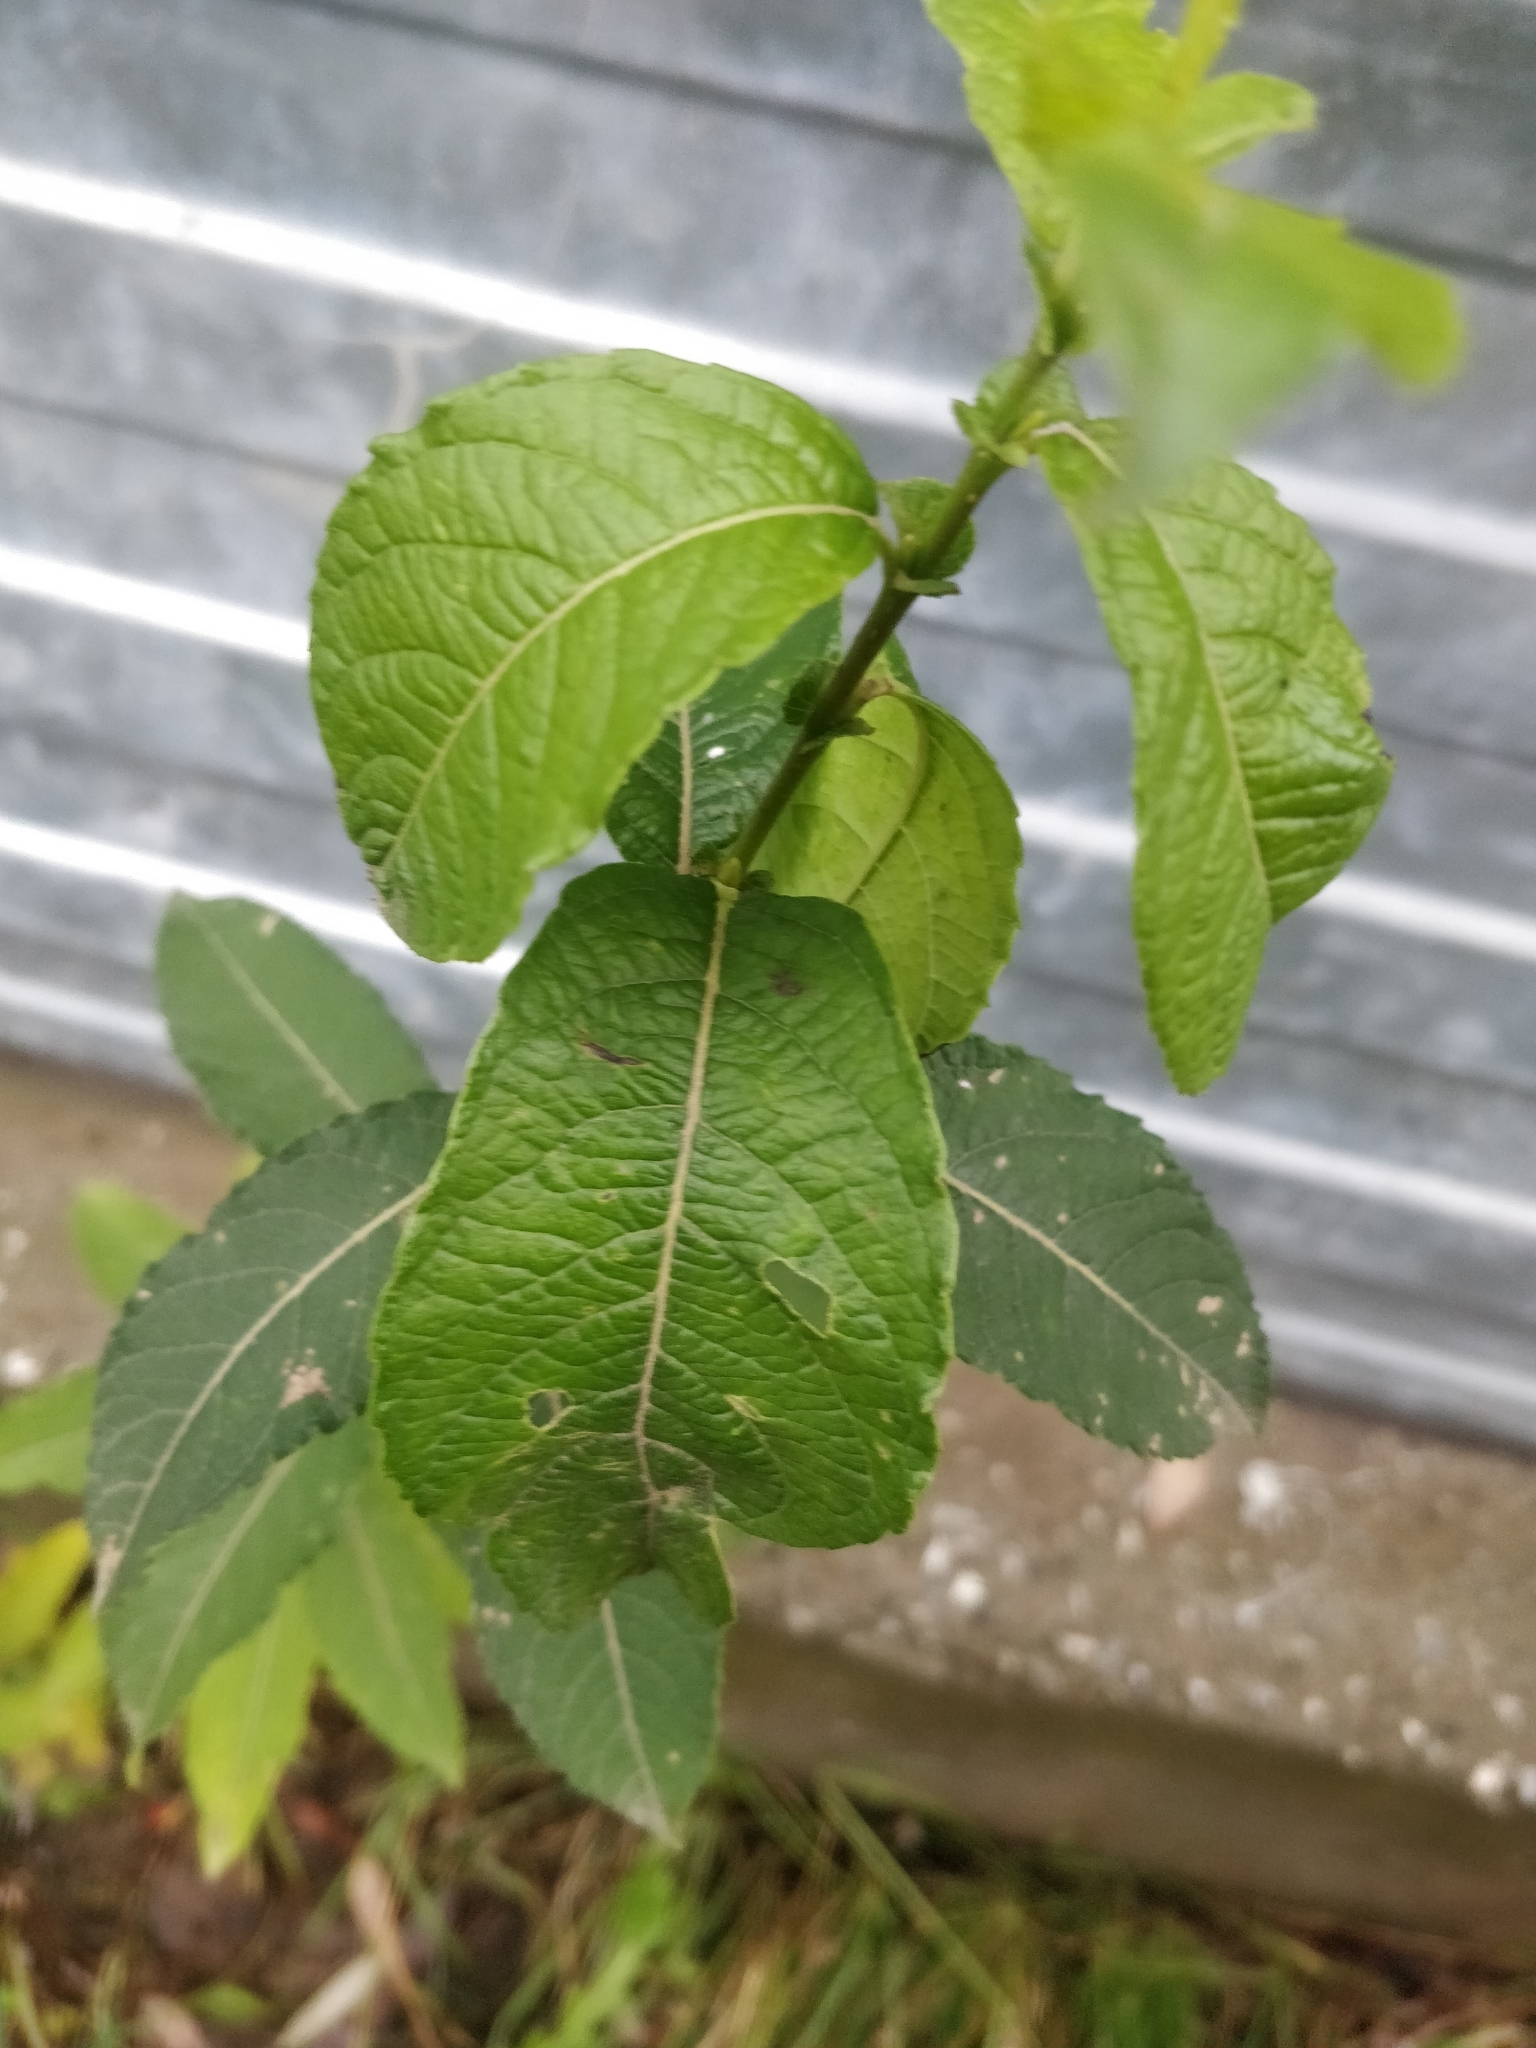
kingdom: Plantae
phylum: Tracheophyta
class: Magnoliopsida
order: Malpighiales
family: Salicaceae
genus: Salix
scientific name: Salix caprea
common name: Goat willow
